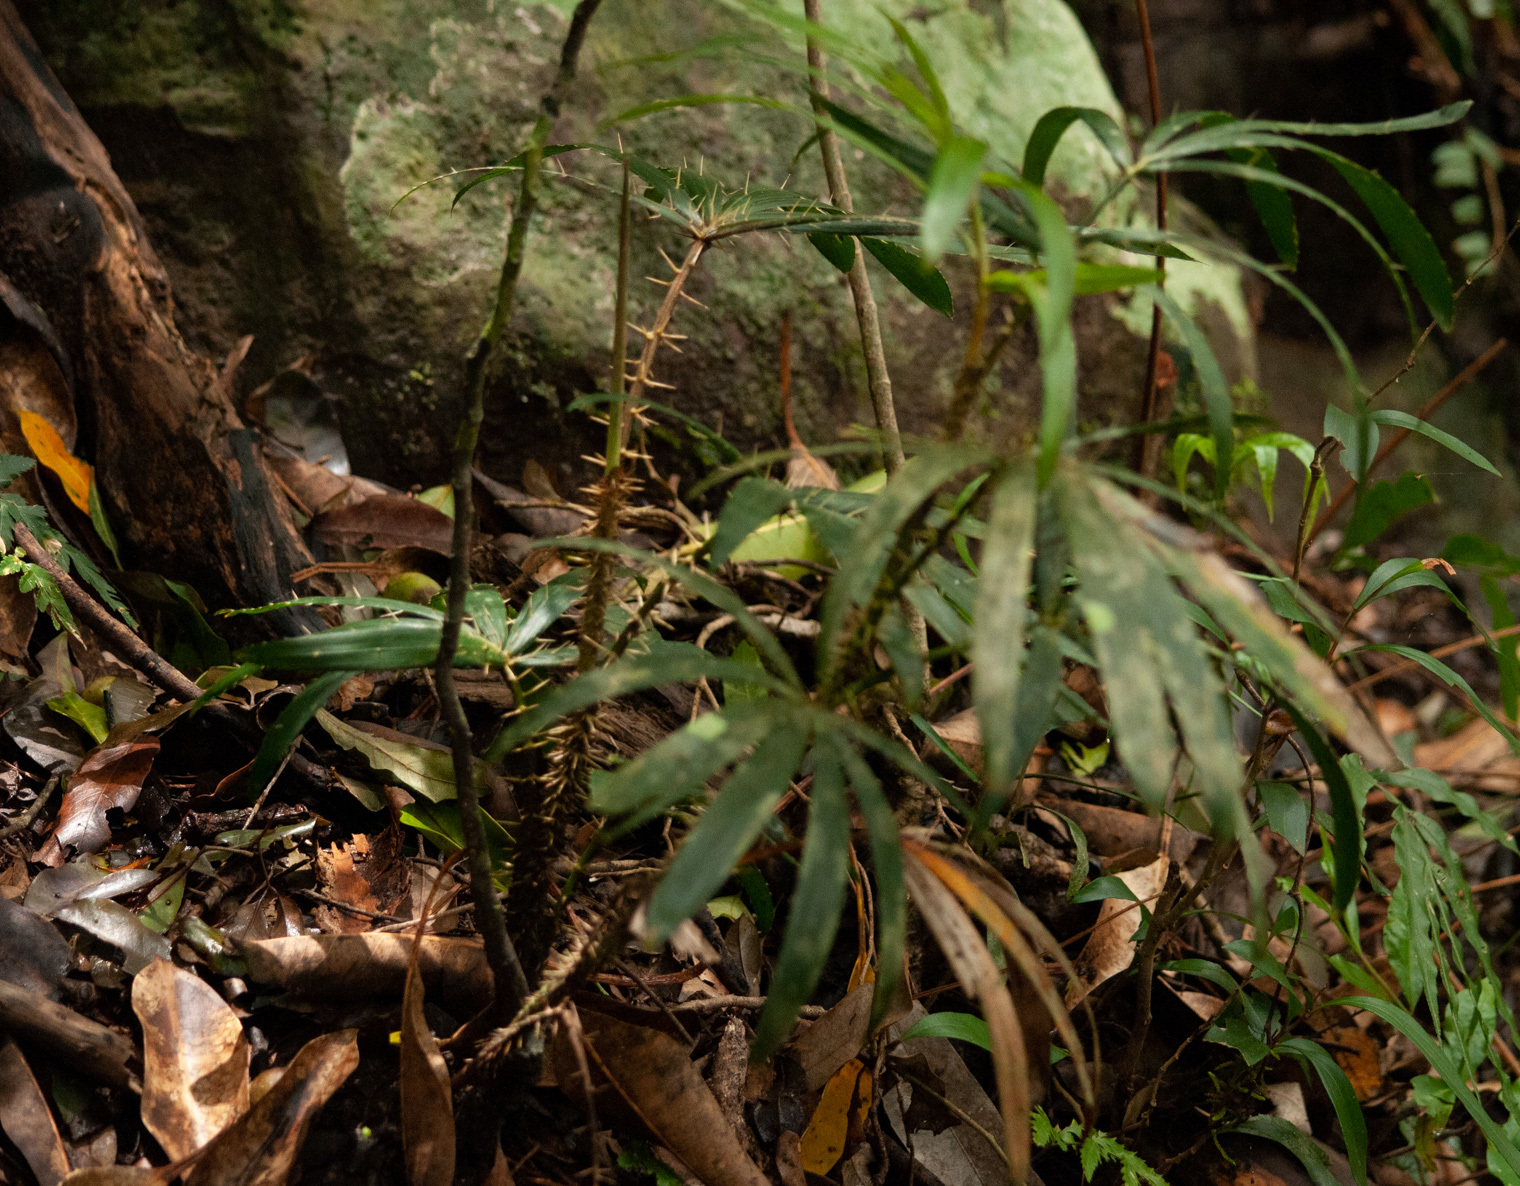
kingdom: Plantae
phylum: Tracheophyta
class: Liliopsida
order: Arecales
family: Arecaceae
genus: Calamus
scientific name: Calamus muelleri
